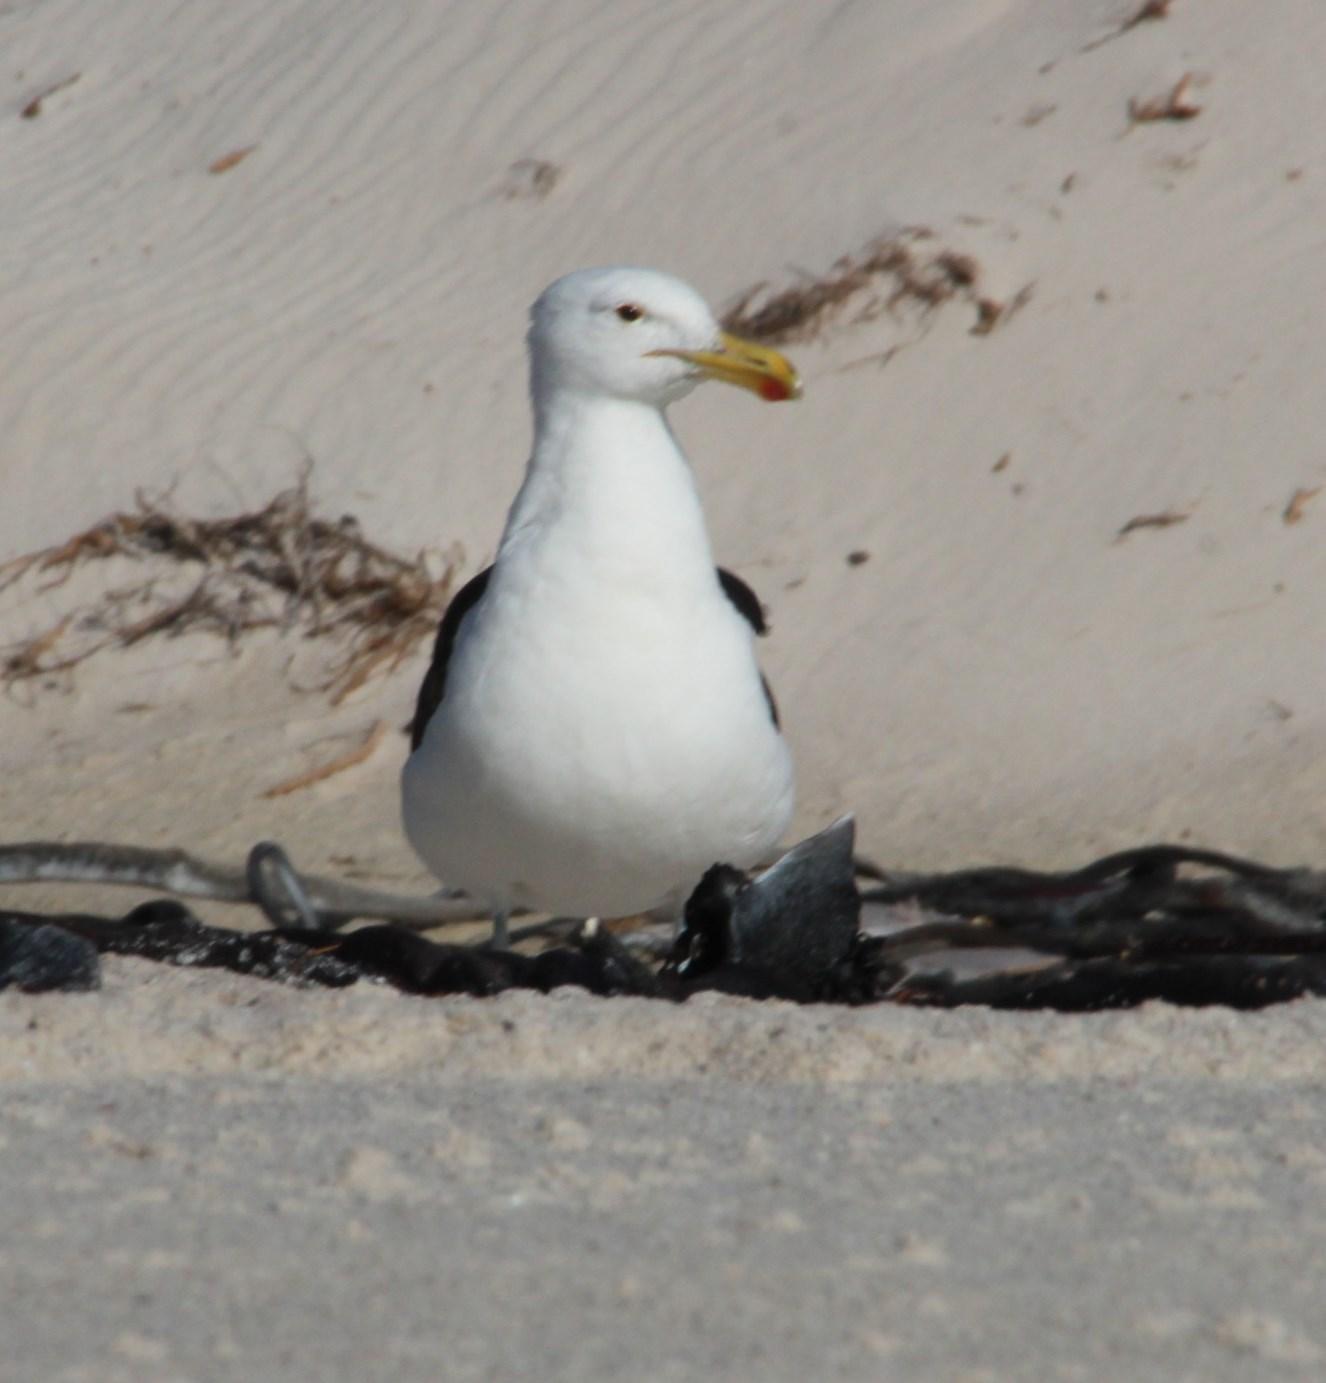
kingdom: Animalia
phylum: Chordata
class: Aves
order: Charadriiformes
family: Laridae
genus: Larus
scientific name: Larus dominicanus
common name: Kelp gull
